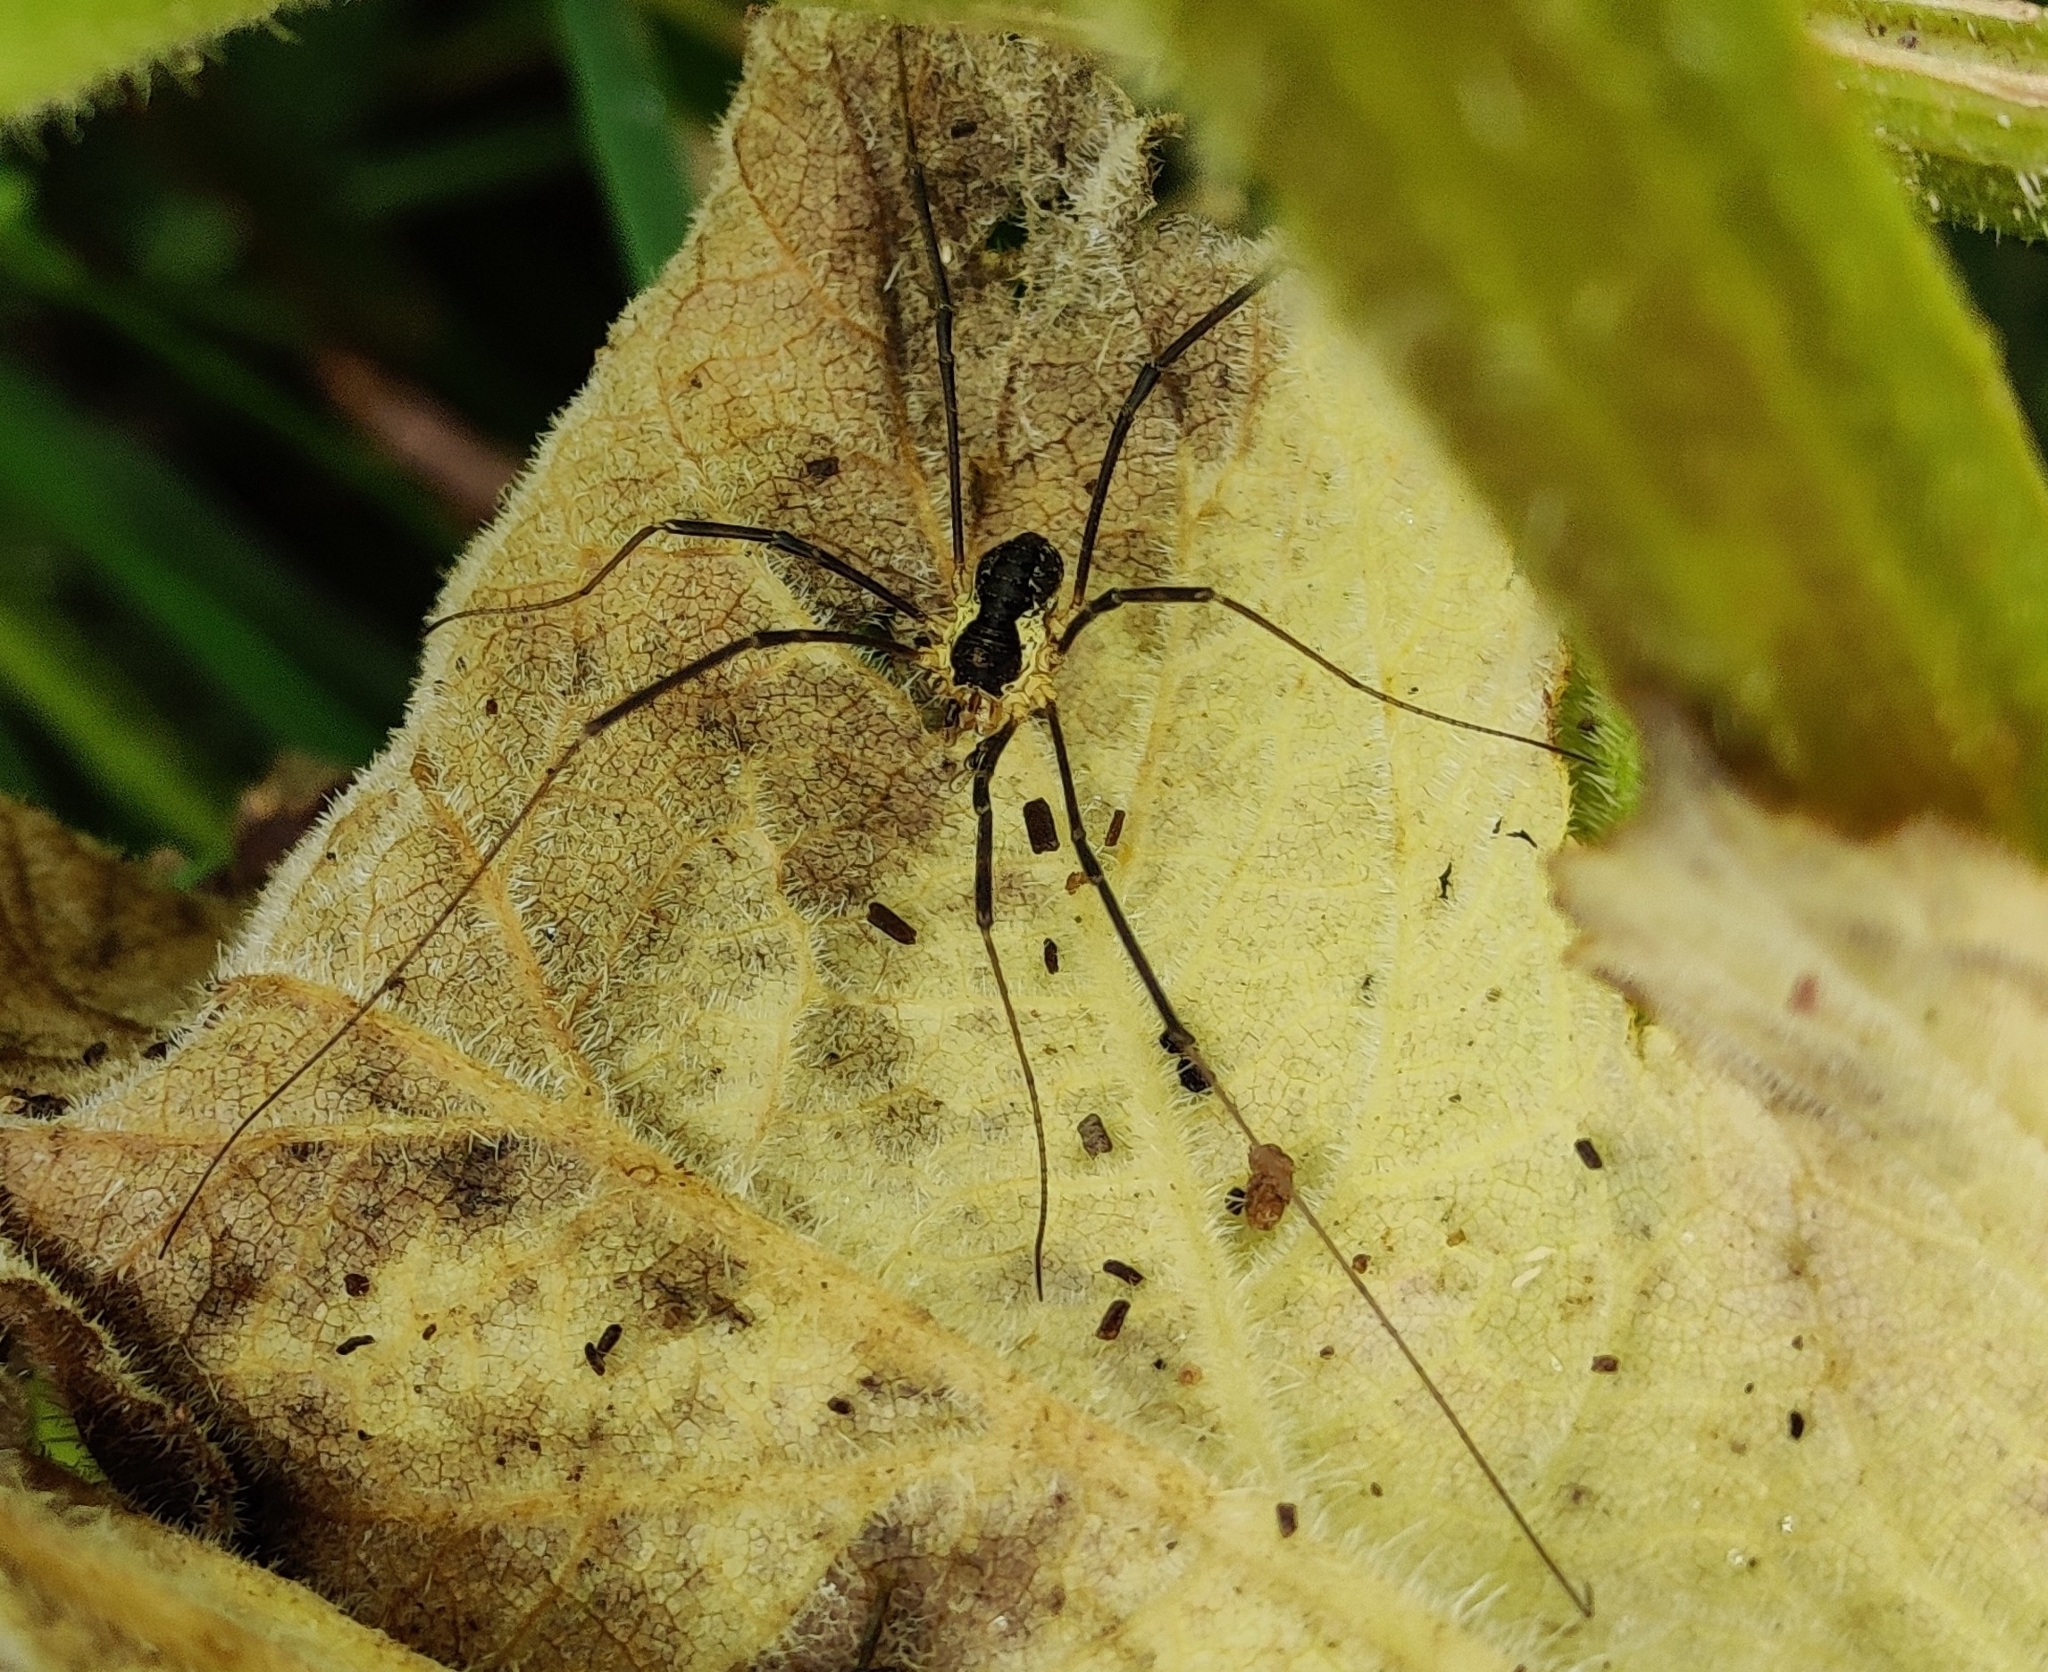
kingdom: Animalia
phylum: Arthropoda
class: Arachnida
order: Opiliones
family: Phalangiidae
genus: Mitopus
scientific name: Mitopus morio
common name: Saddleback harvestman
